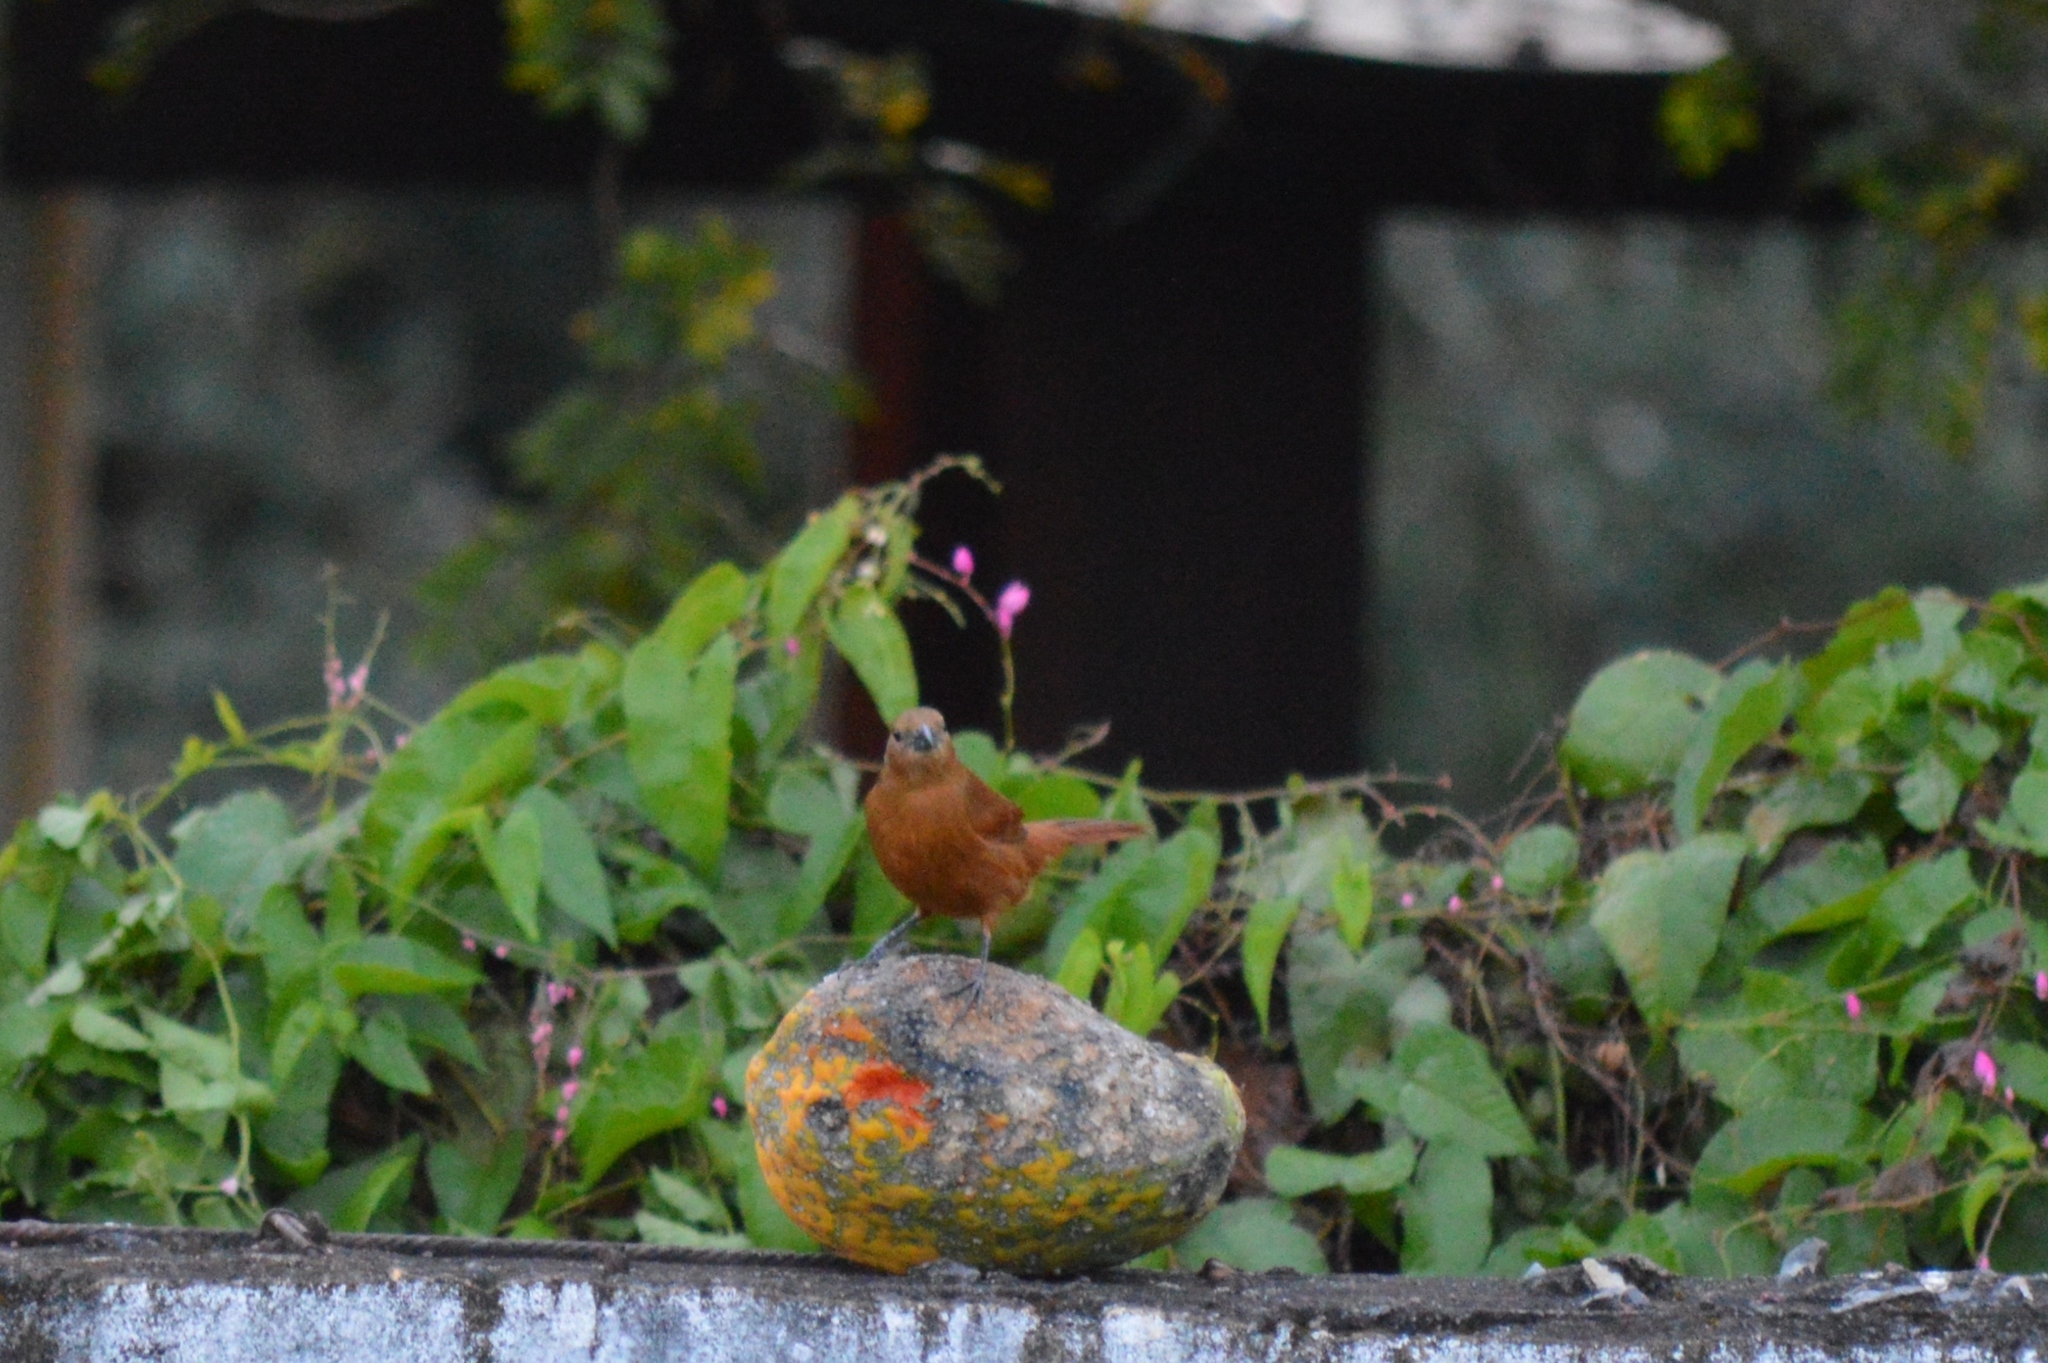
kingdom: Animalia
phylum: Chordata
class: Aves
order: Passeriformes
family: Thraupidae
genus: Tachyphonus
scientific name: Tachyphonus rufus
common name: White-lined tanager
